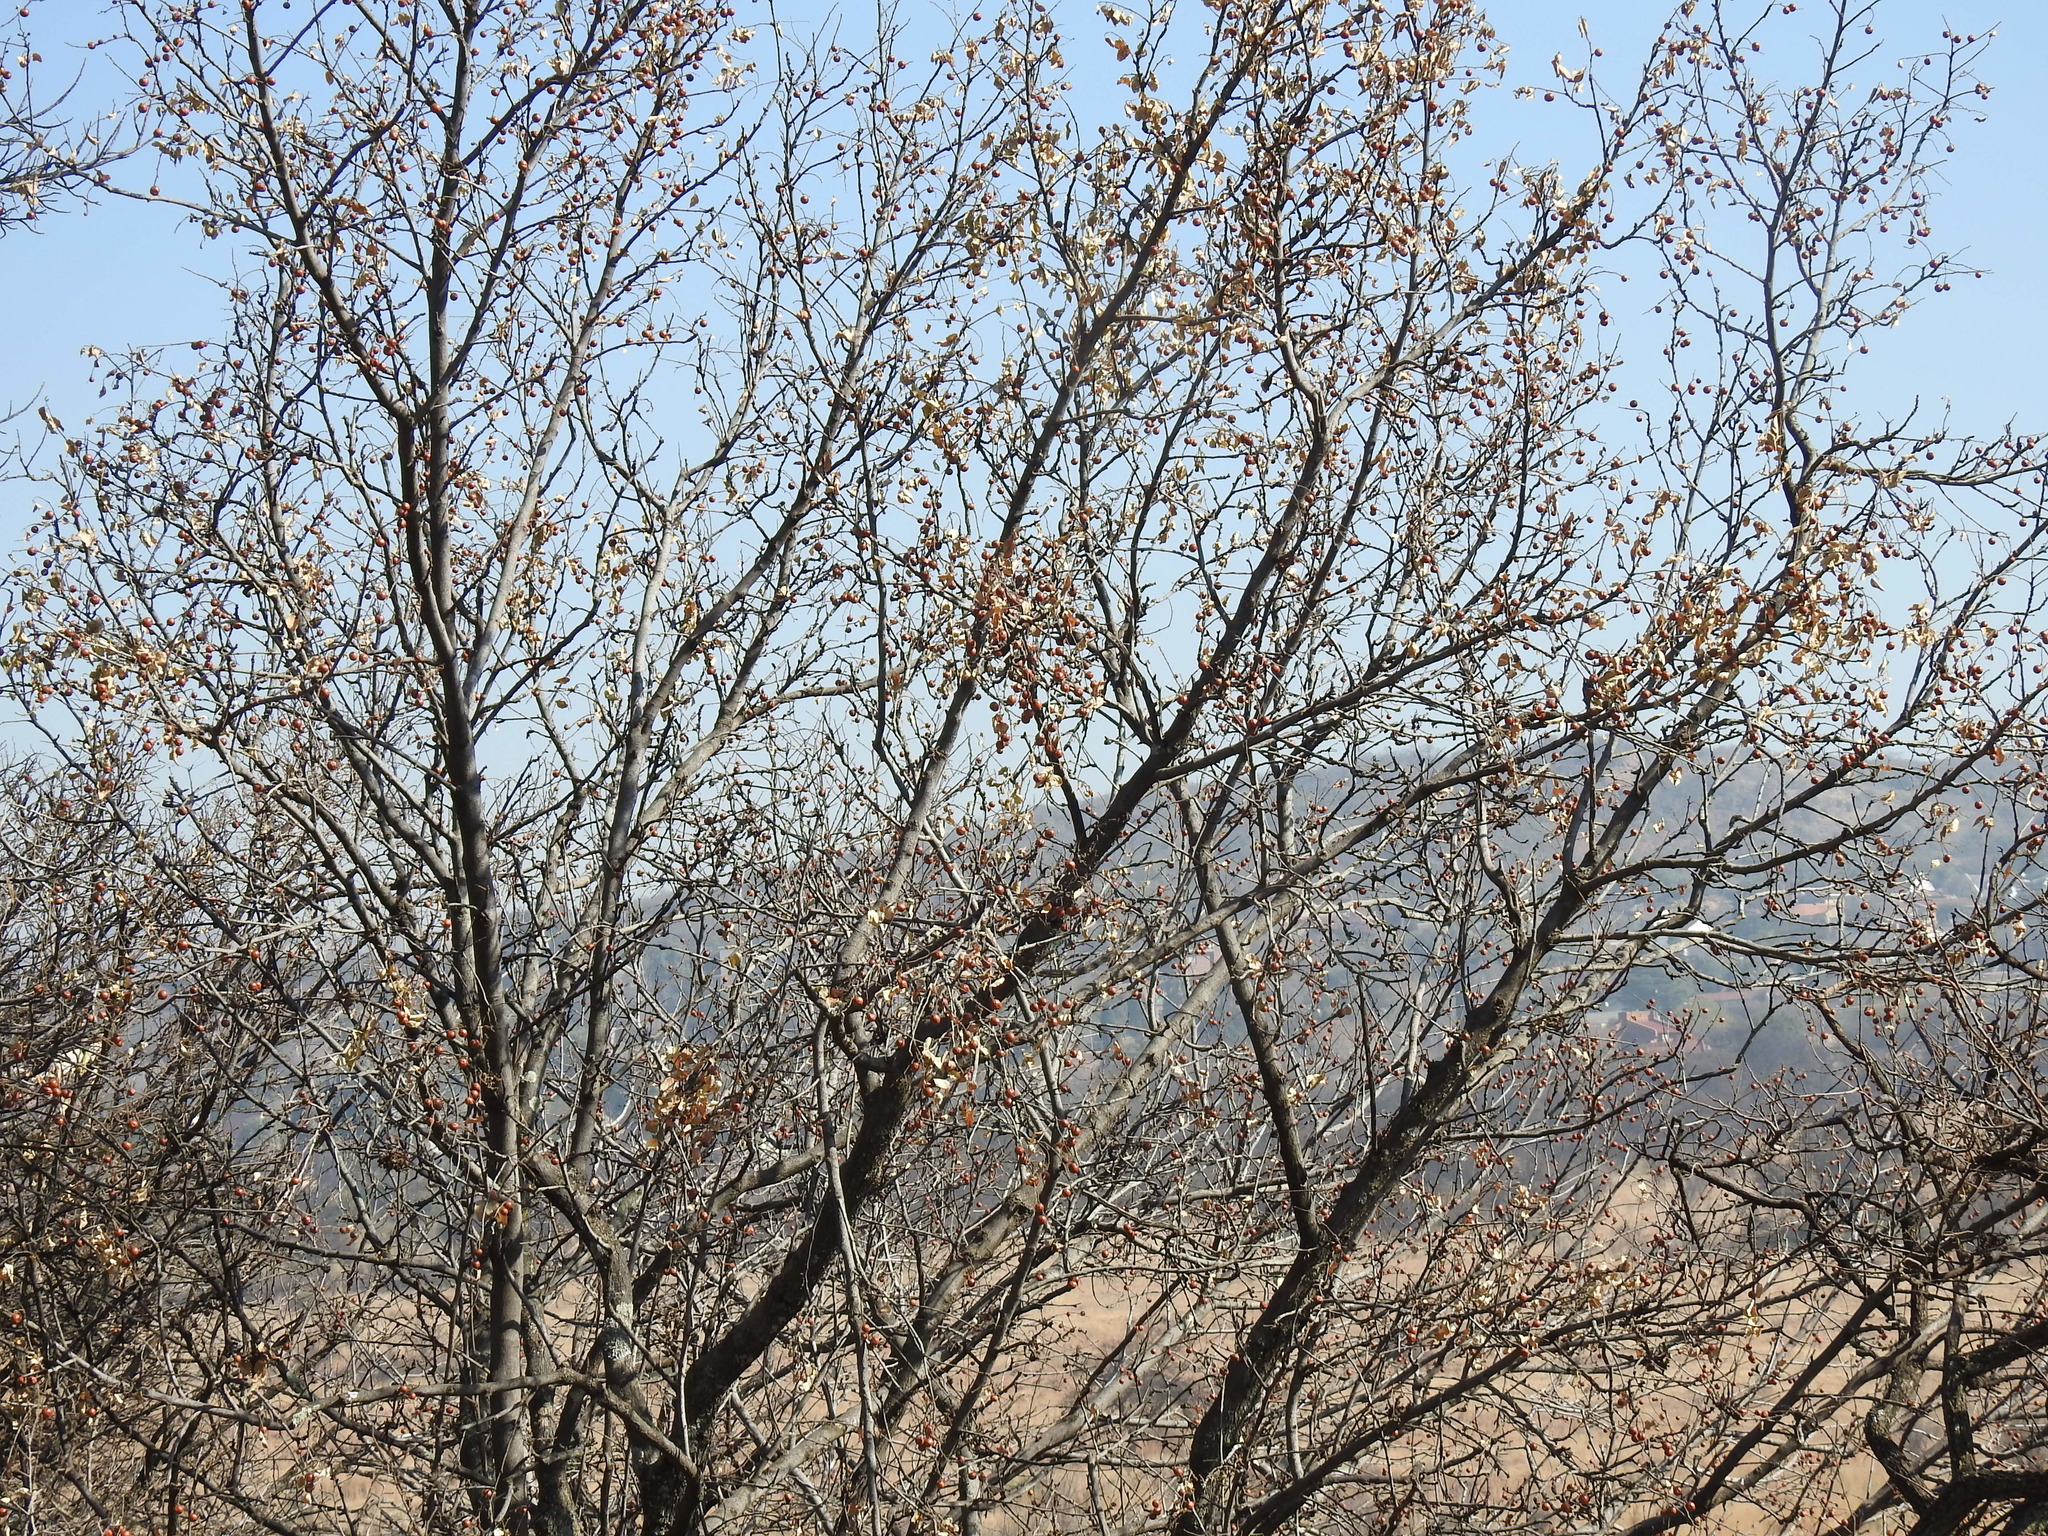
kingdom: Plantae
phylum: Tracheophyta
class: Magnoliopsida
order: Rosales
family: Rhamnaceae
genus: Ziziphus
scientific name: Ziziphus mucronata
